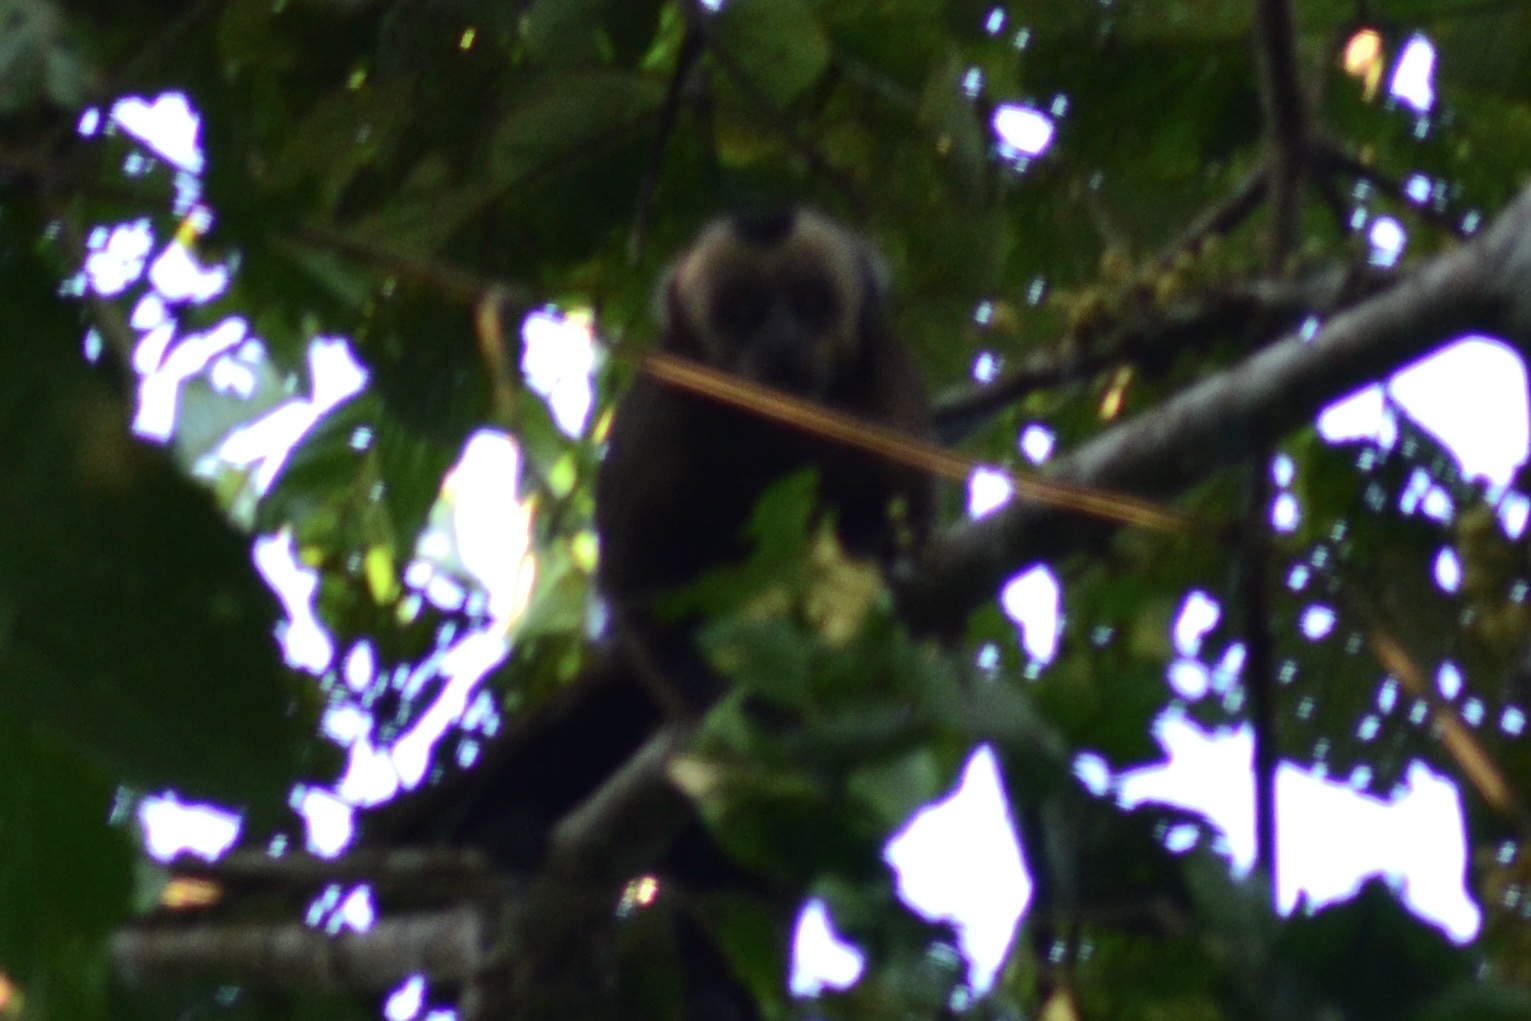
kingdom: Animalia
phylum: Chordata
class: Mammalia
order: Primates
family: Cebidae
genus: Sapajus
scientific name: Sapajus apella
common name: Tufted capuchin
